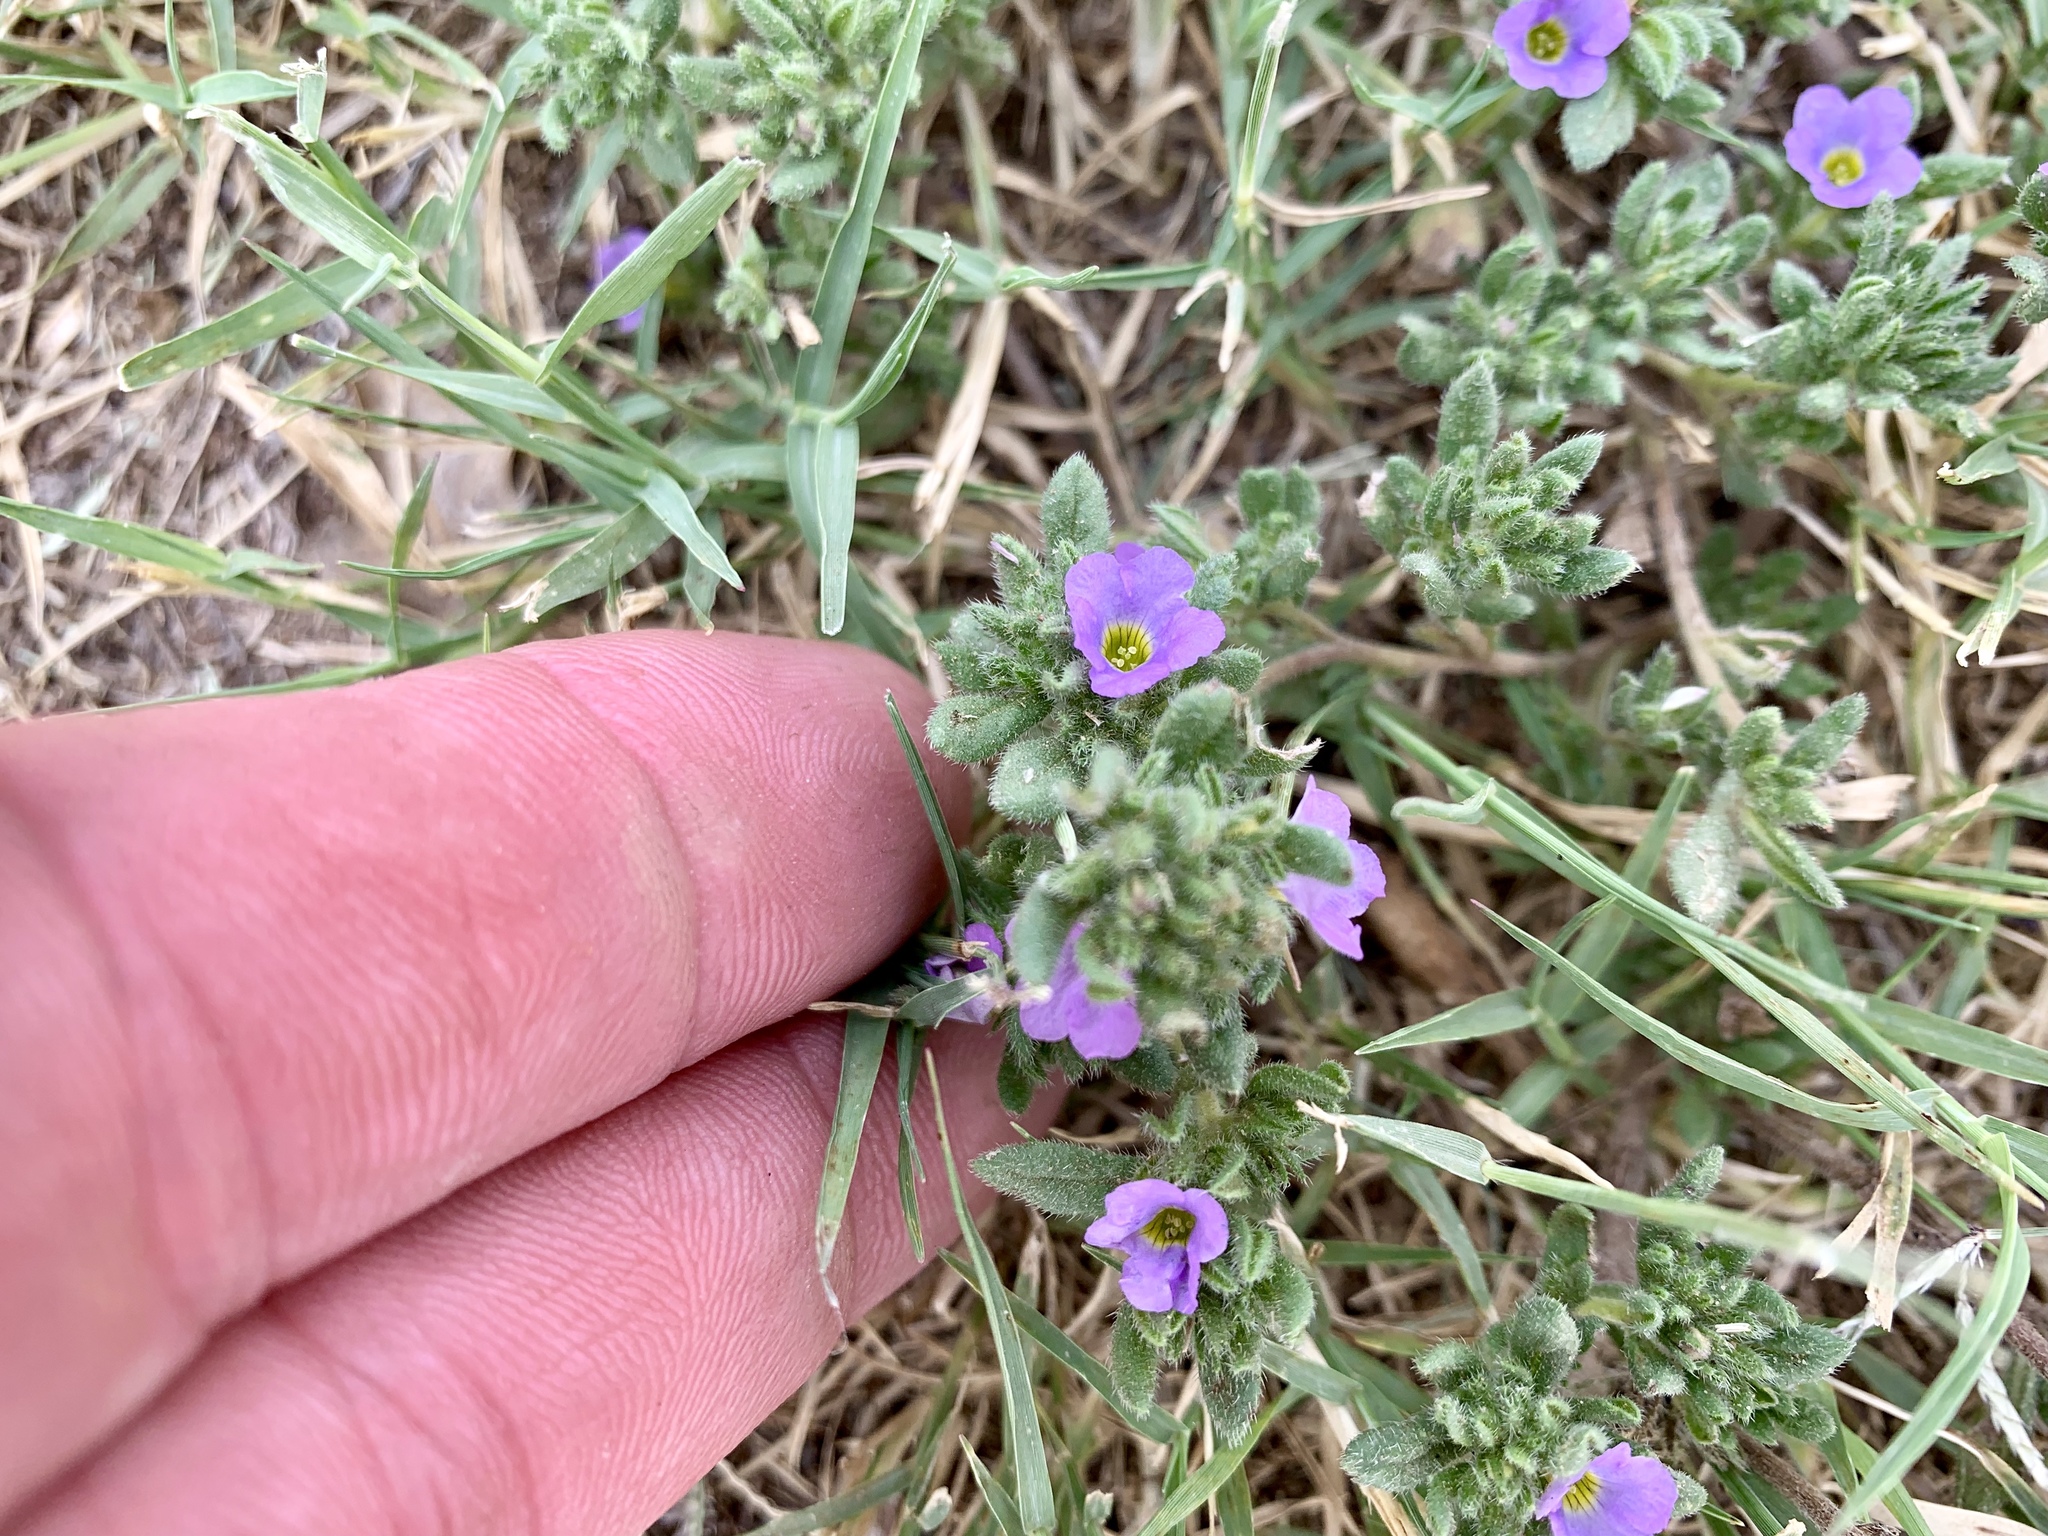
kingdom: Plantae
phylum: Tracheophyta
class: Magnoliopsida
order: Boraginales
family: Namaceae
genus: Nama
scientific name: Nama hispida
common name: Bristly nama
